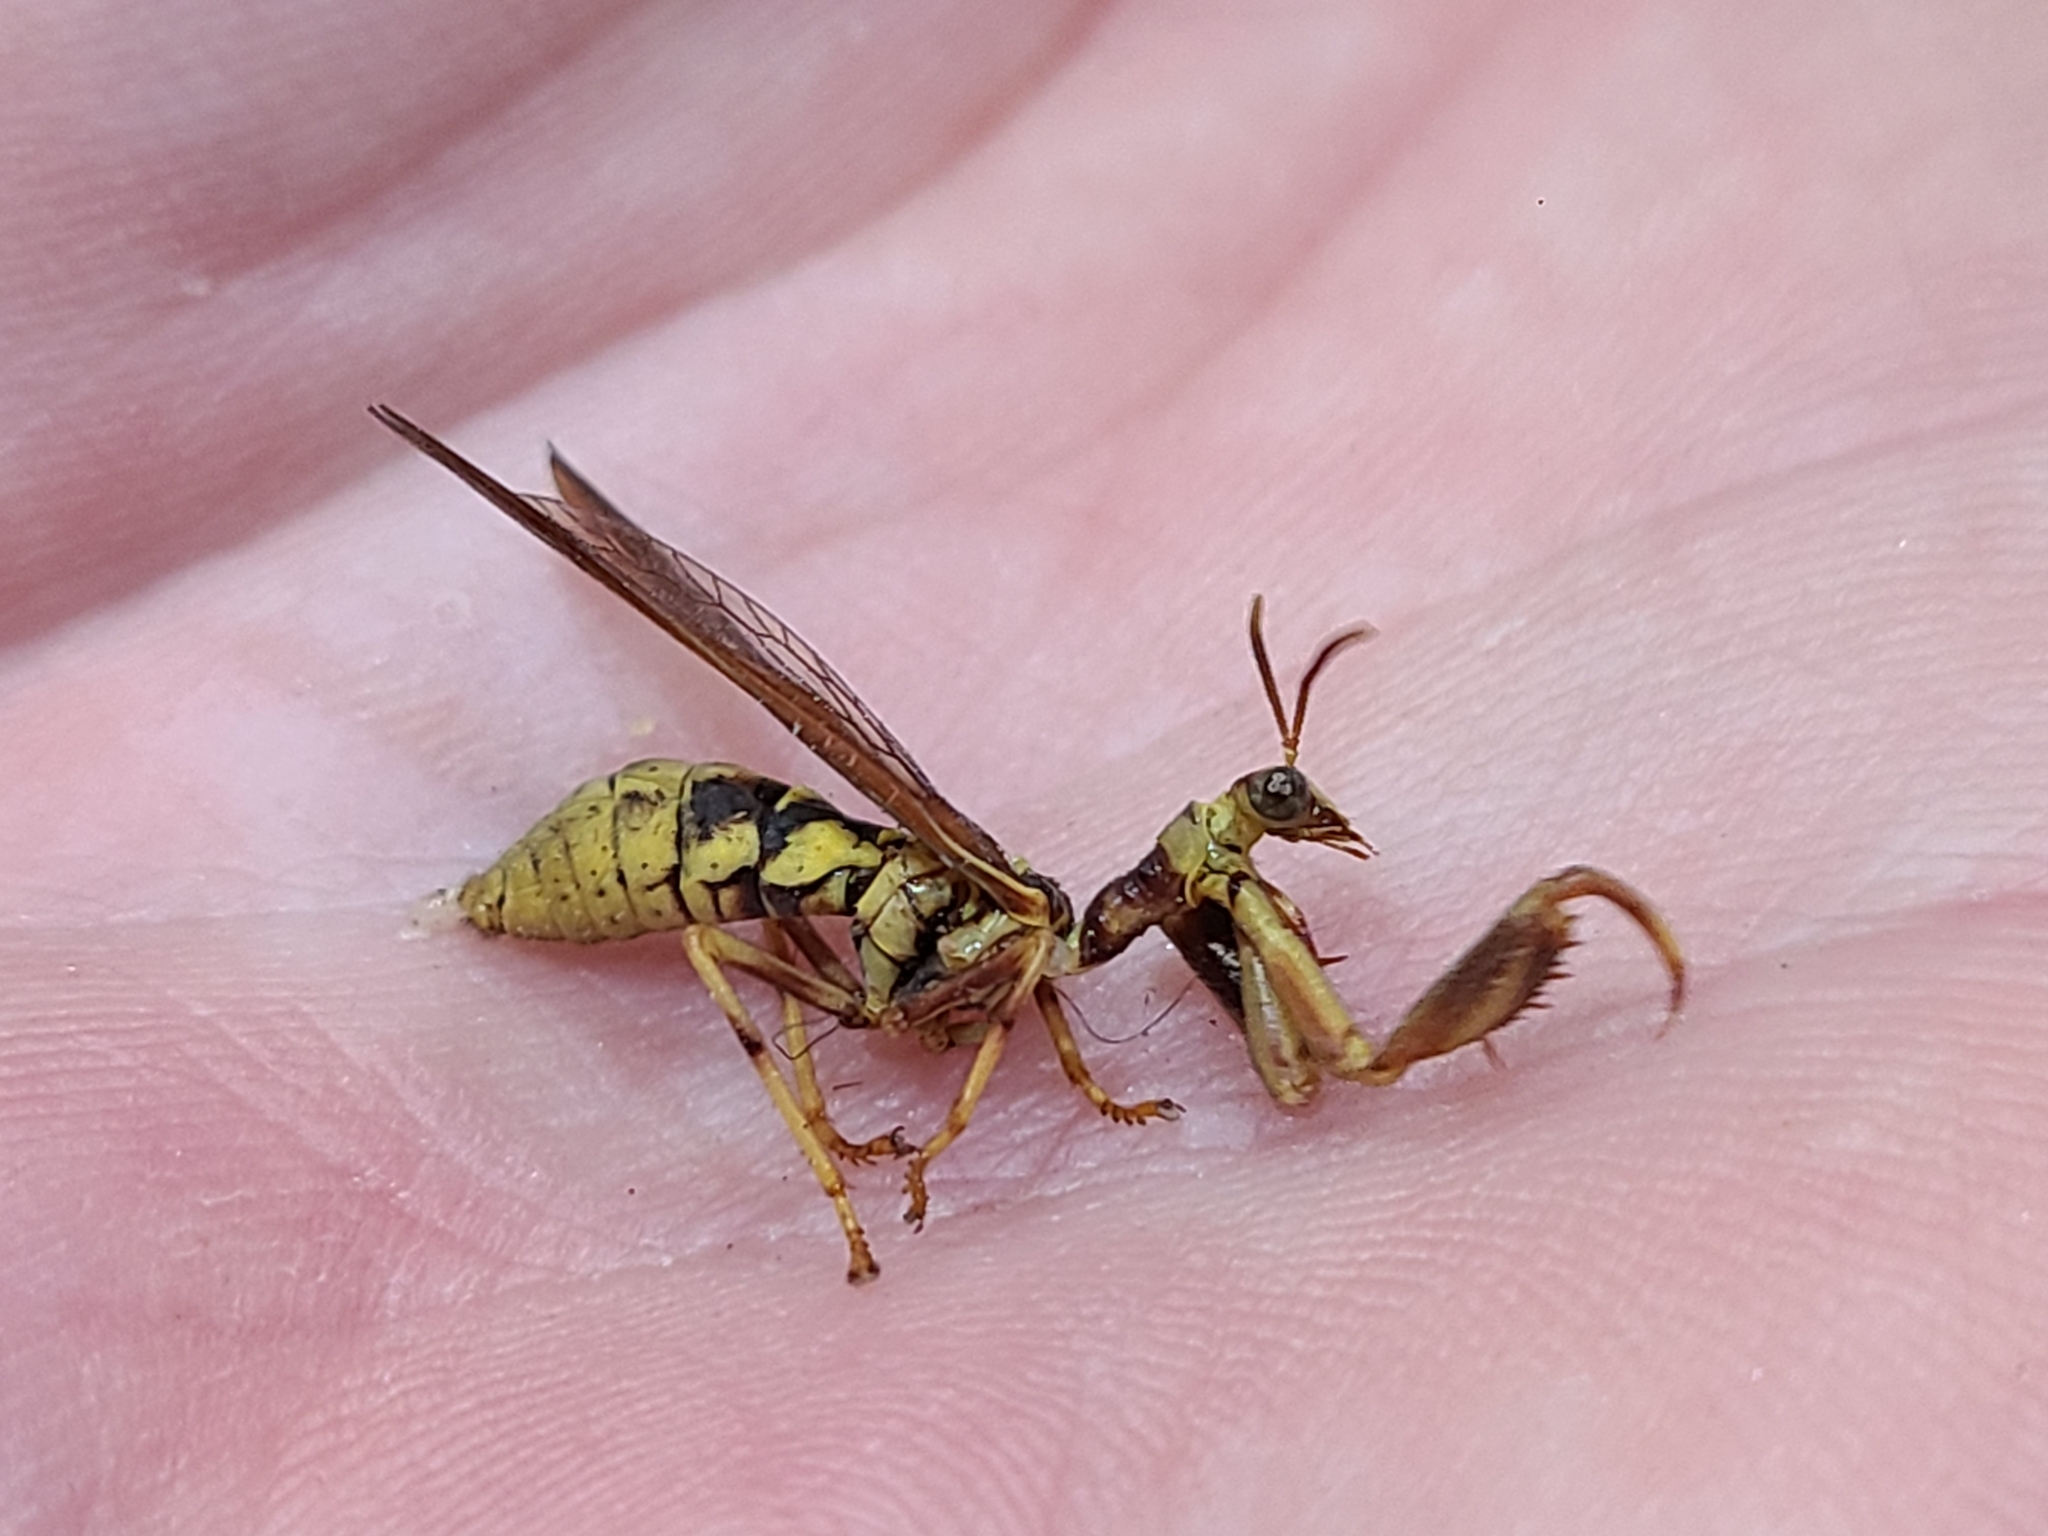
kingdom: Animalia
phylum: Arthropoda
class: Insecta
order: Neuroptera
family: Mantispidae
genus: Climaciella
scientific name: Climaciella brunnea
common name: Brown wasp mantidfly
